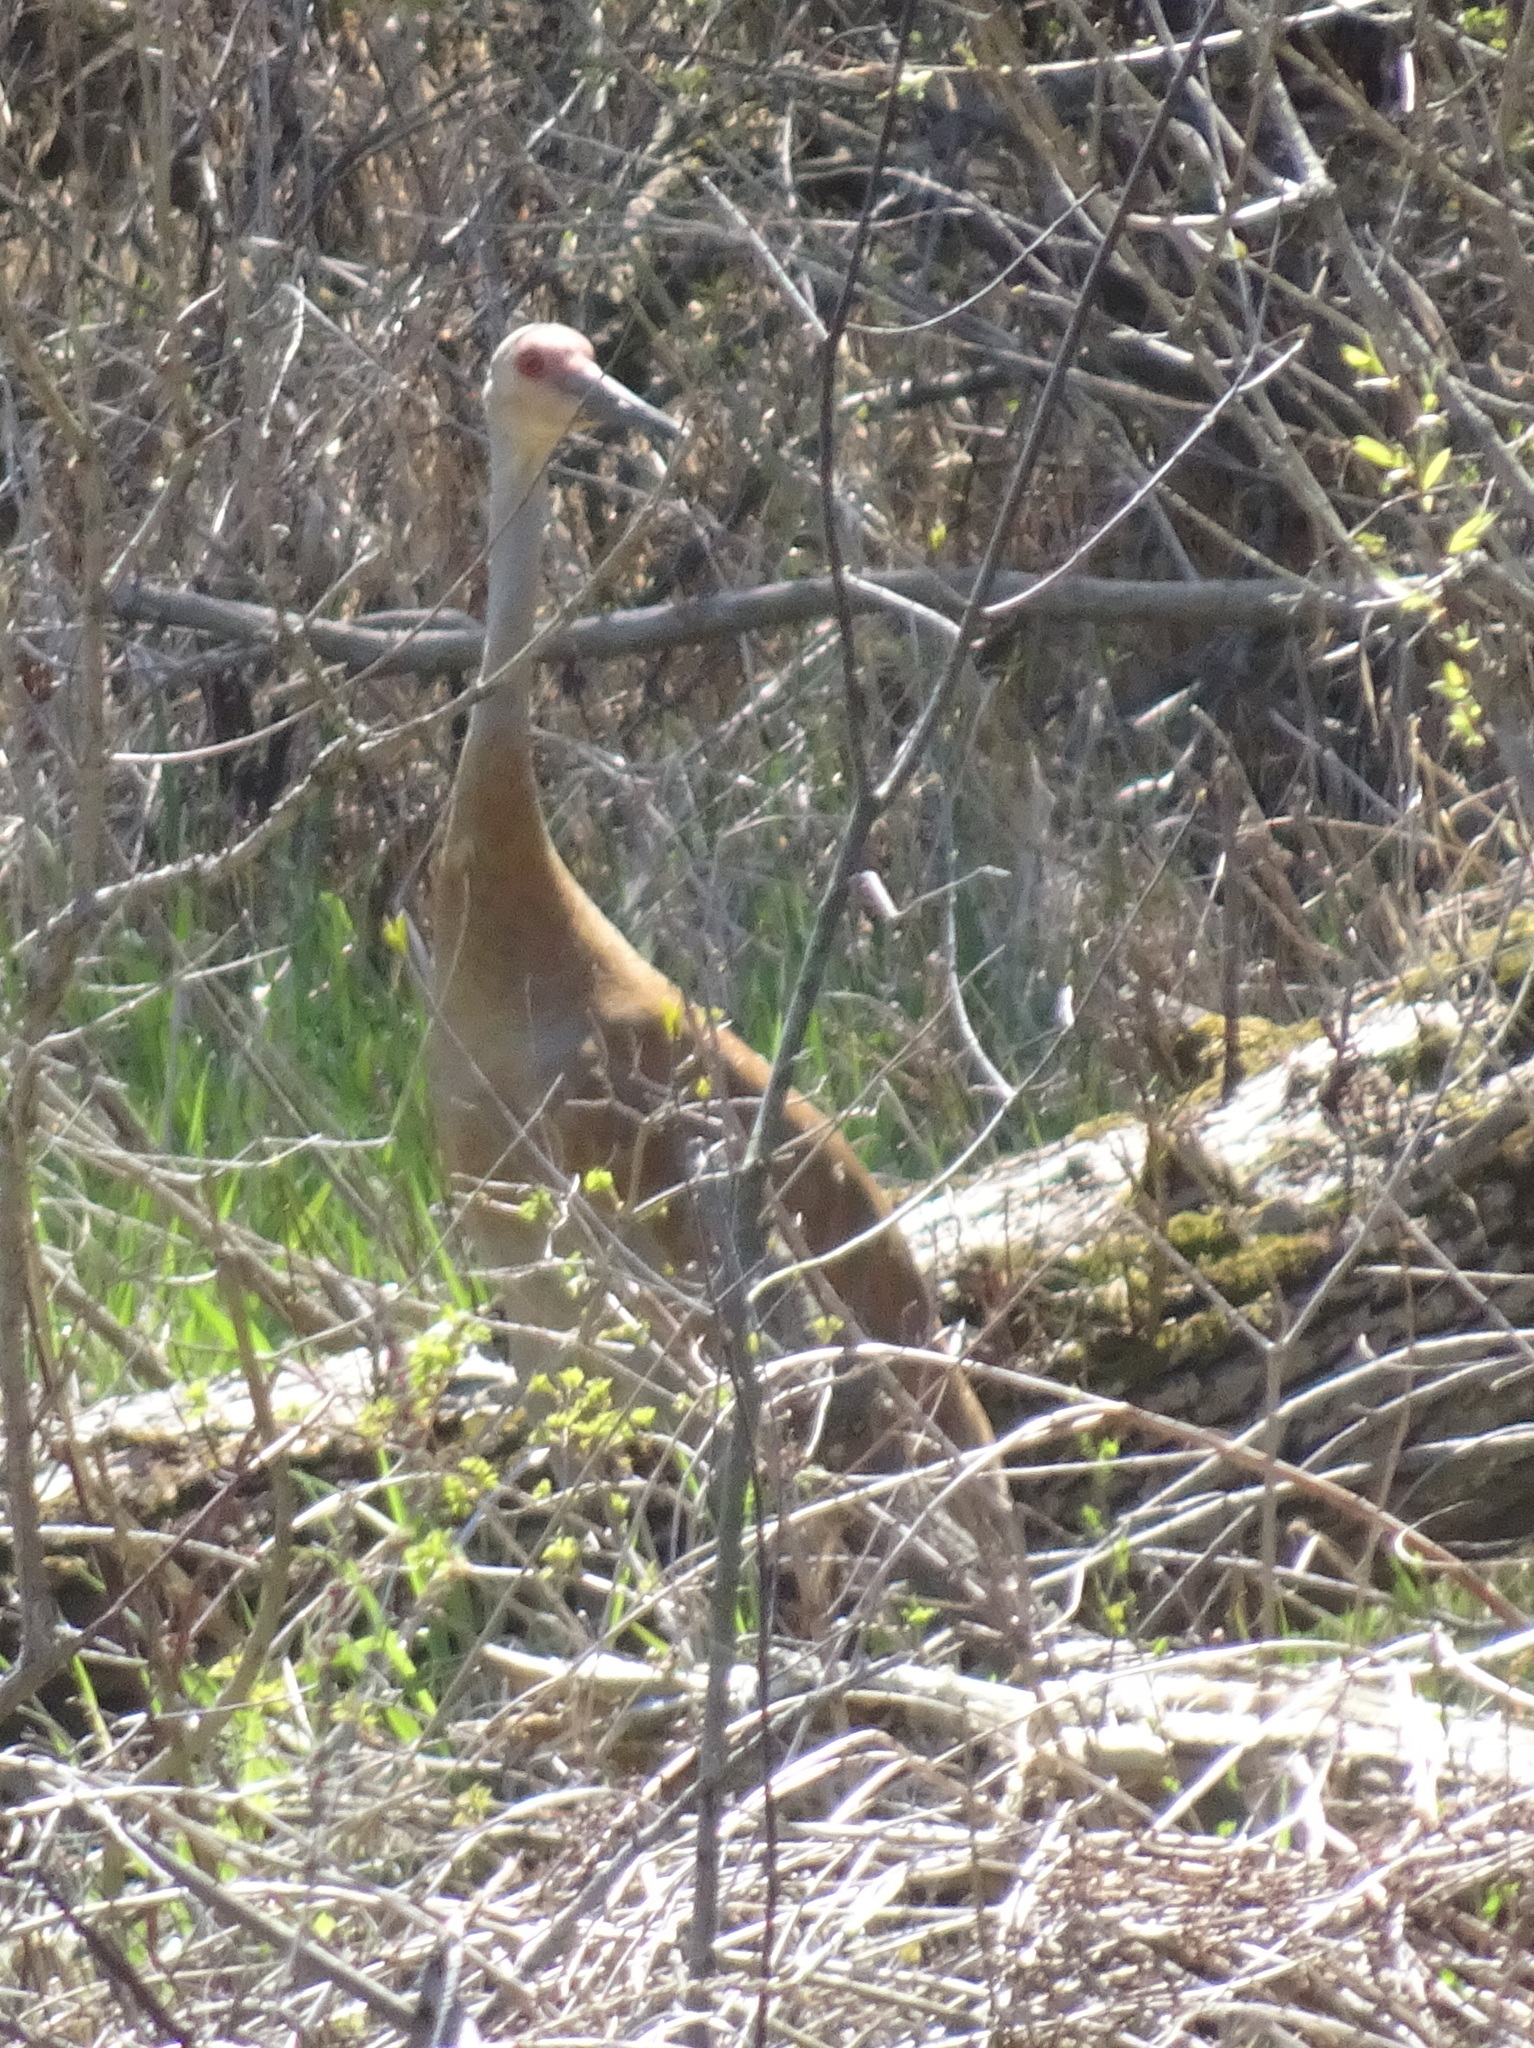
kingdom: Animalia
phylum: Chordata
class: Aves
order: Gruiformes
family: Gruidae
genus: Grus
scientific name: Grus canadensis
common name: Sandhill crane
